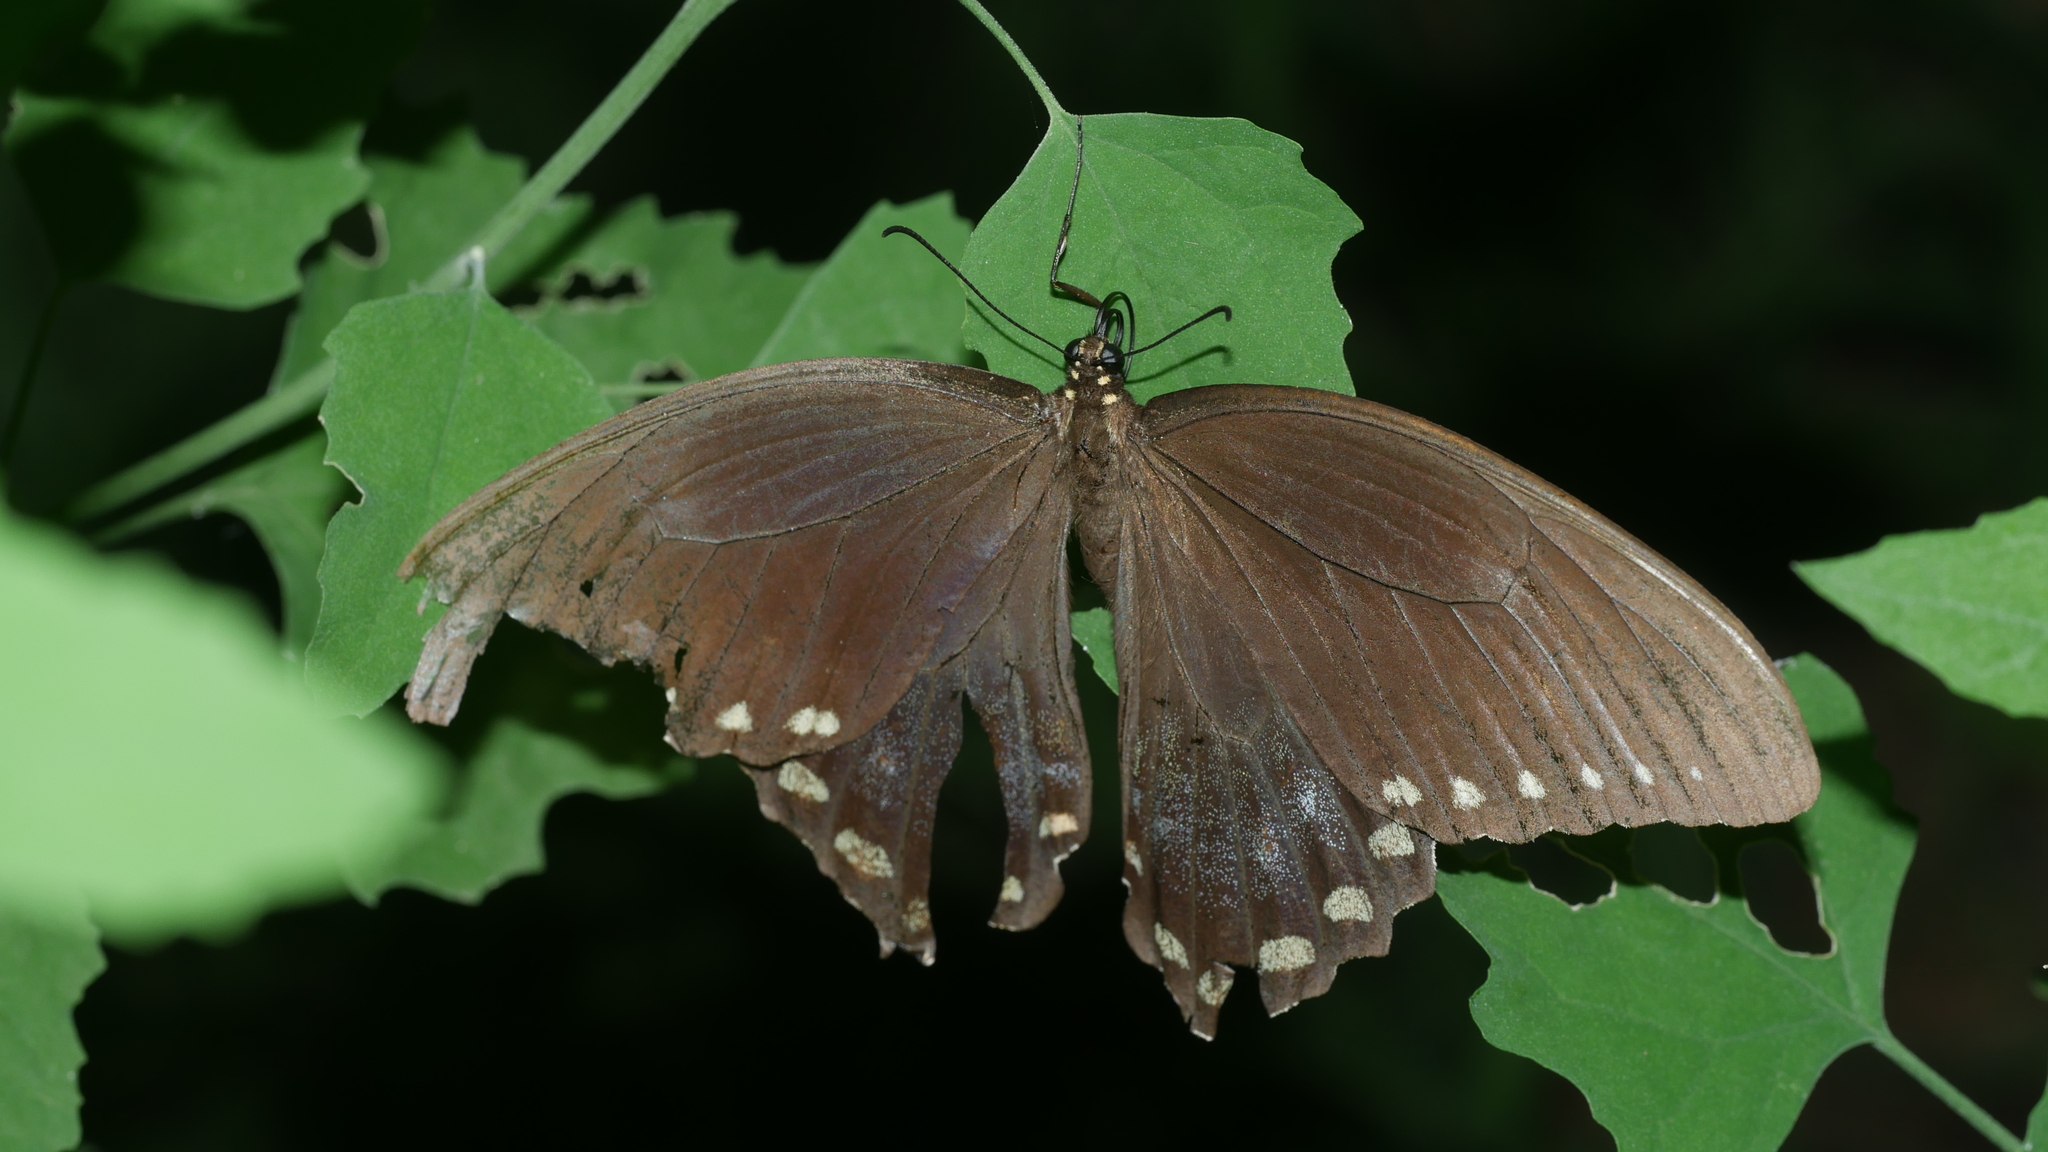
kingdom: Animalia
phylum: Arthropoda
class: Insecta
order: Lepidoptera
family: Papilionidae
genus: Papilio
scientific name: Papilio troilus
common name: Spicebush swallowtail
